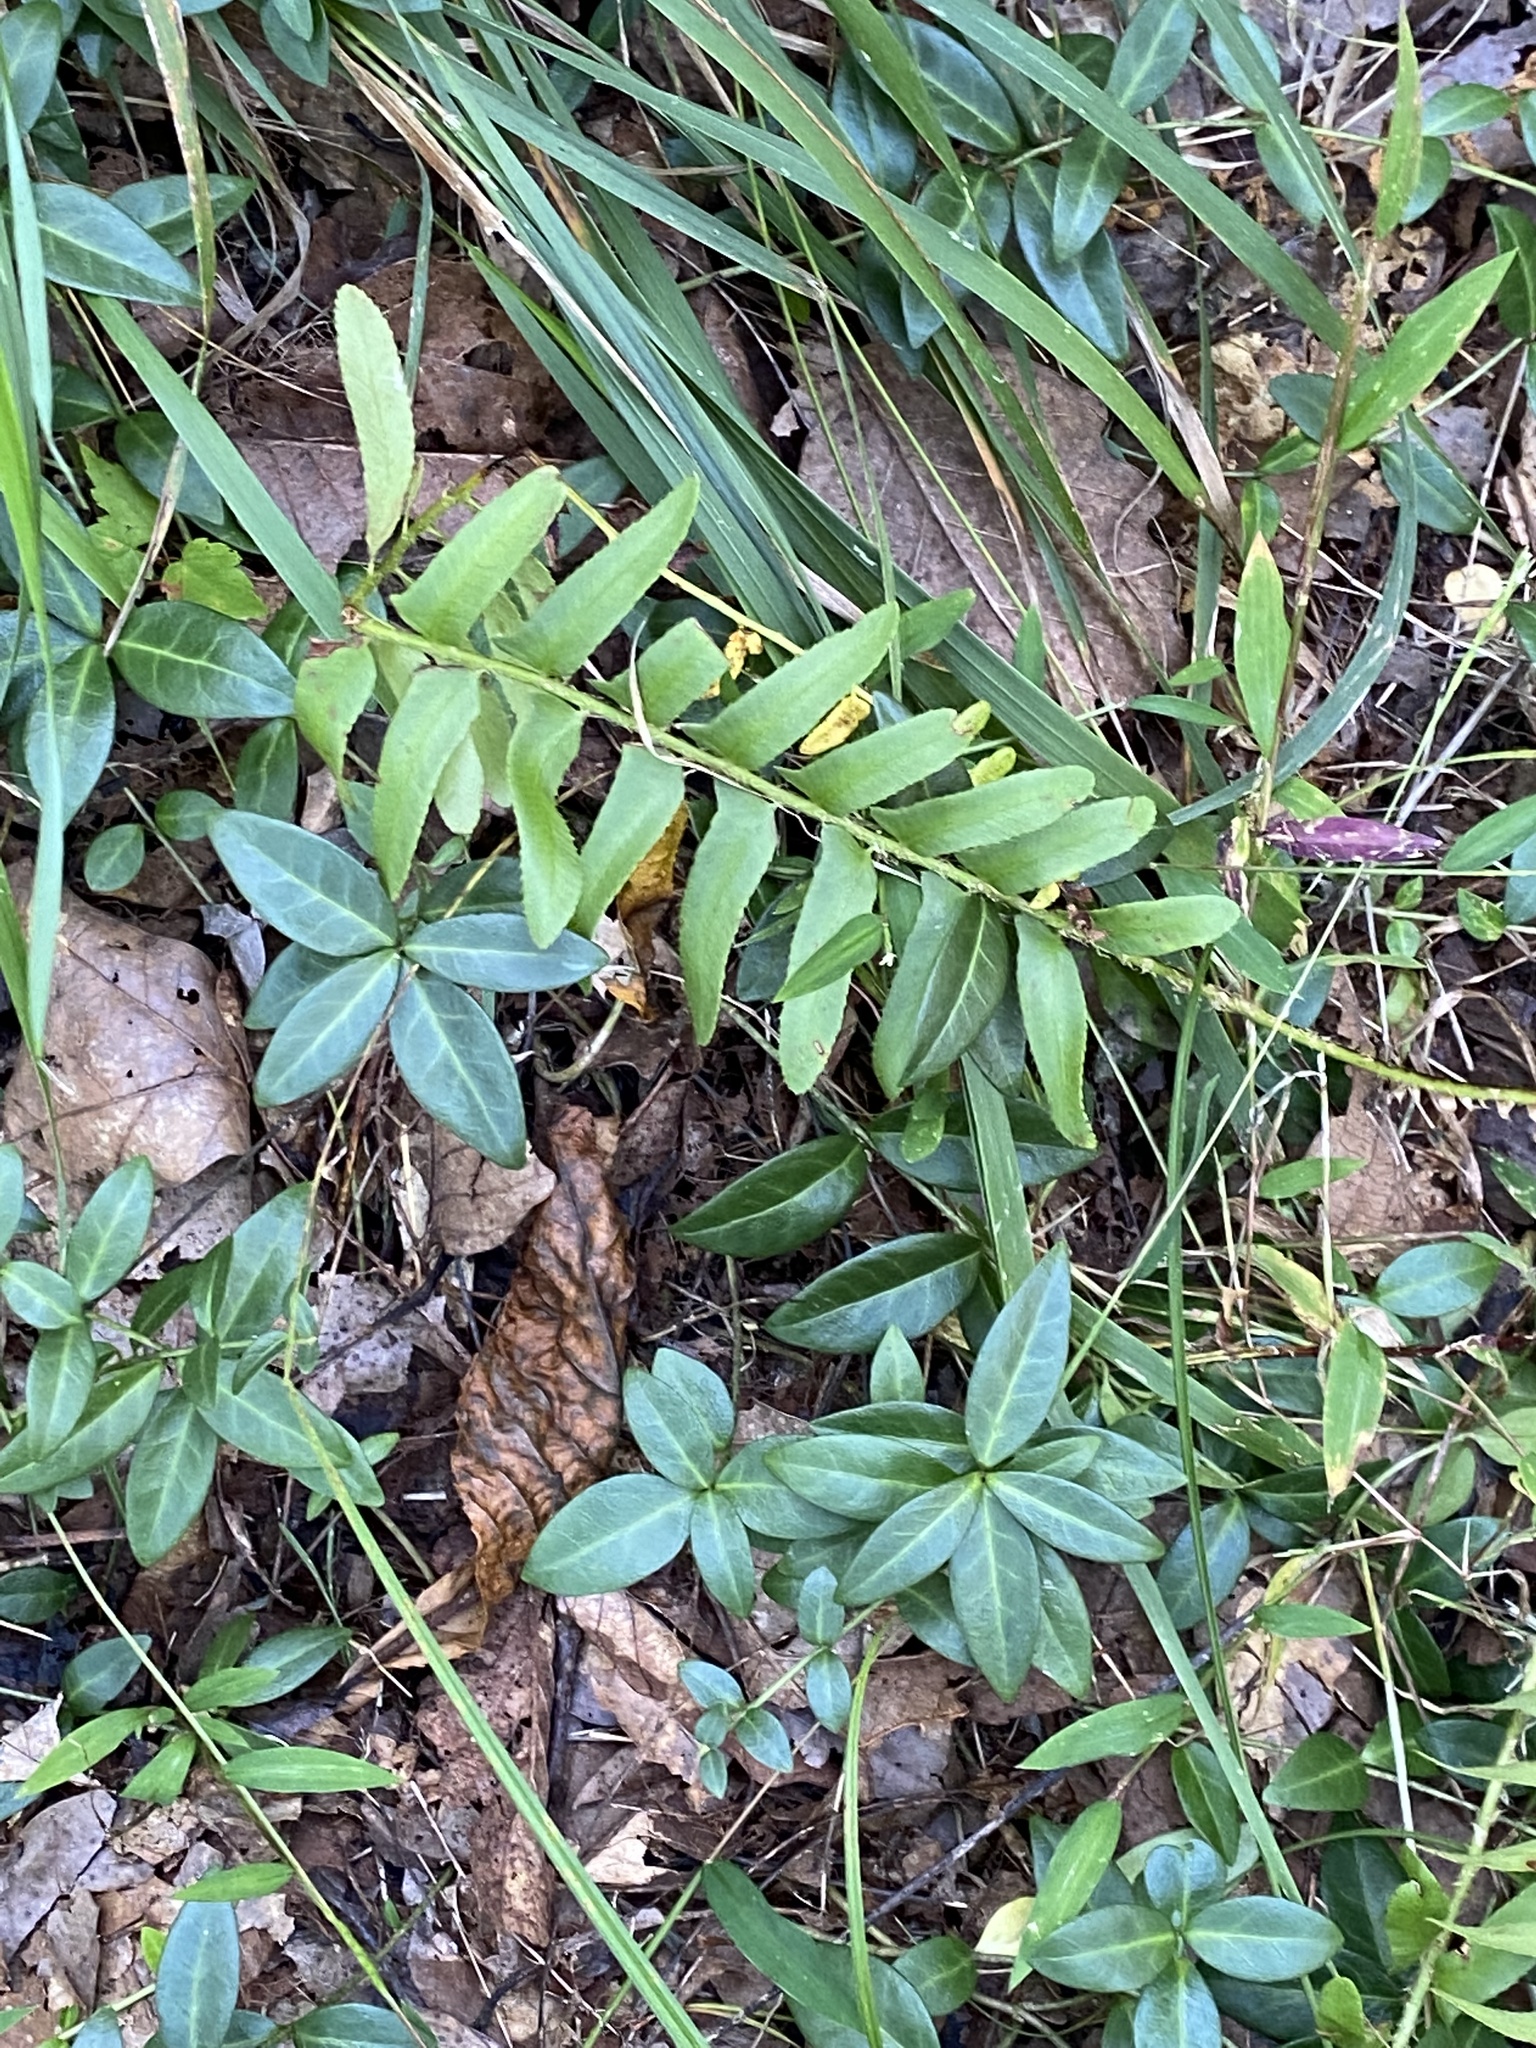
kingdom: Plantae
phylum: Tracheophyta
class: Polypodiopsida
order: Polypodiales
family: Dryopteridaceae
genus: Polystichum
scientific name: Polystichum acrostichoides
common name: Christmas fern
